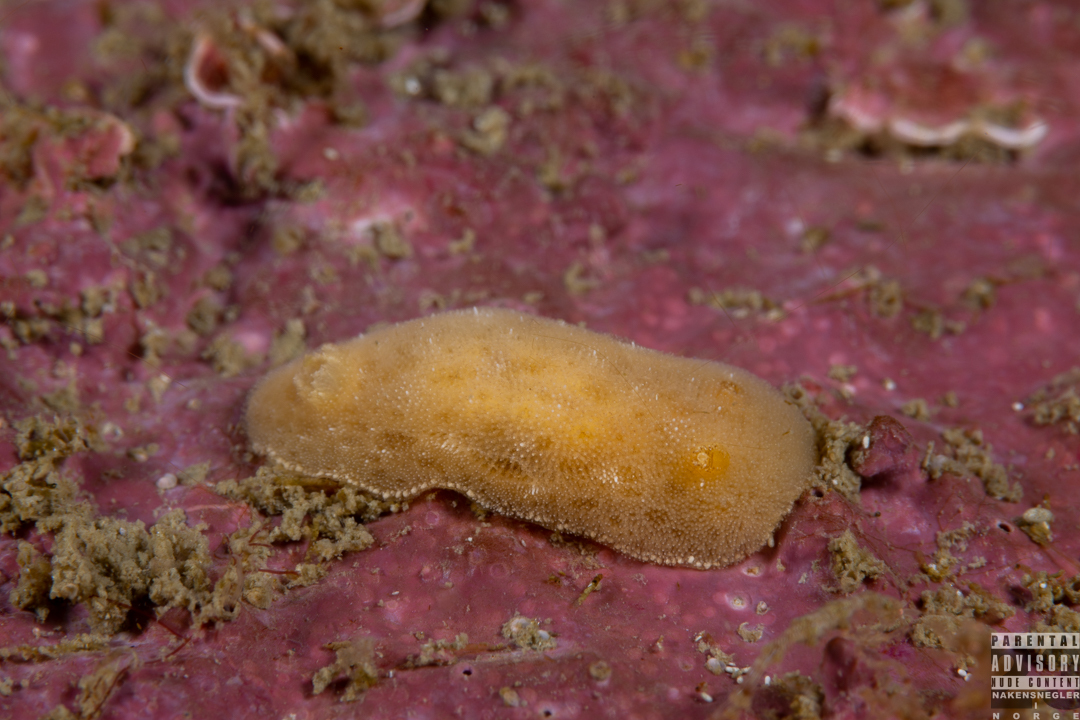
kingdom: Animalia
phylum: Mollusca
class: Gastropoda
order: Nudibranchia
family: Discodorididae
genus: Jorunna
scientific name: Jorunna tomentosa
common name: Grey sea slug
